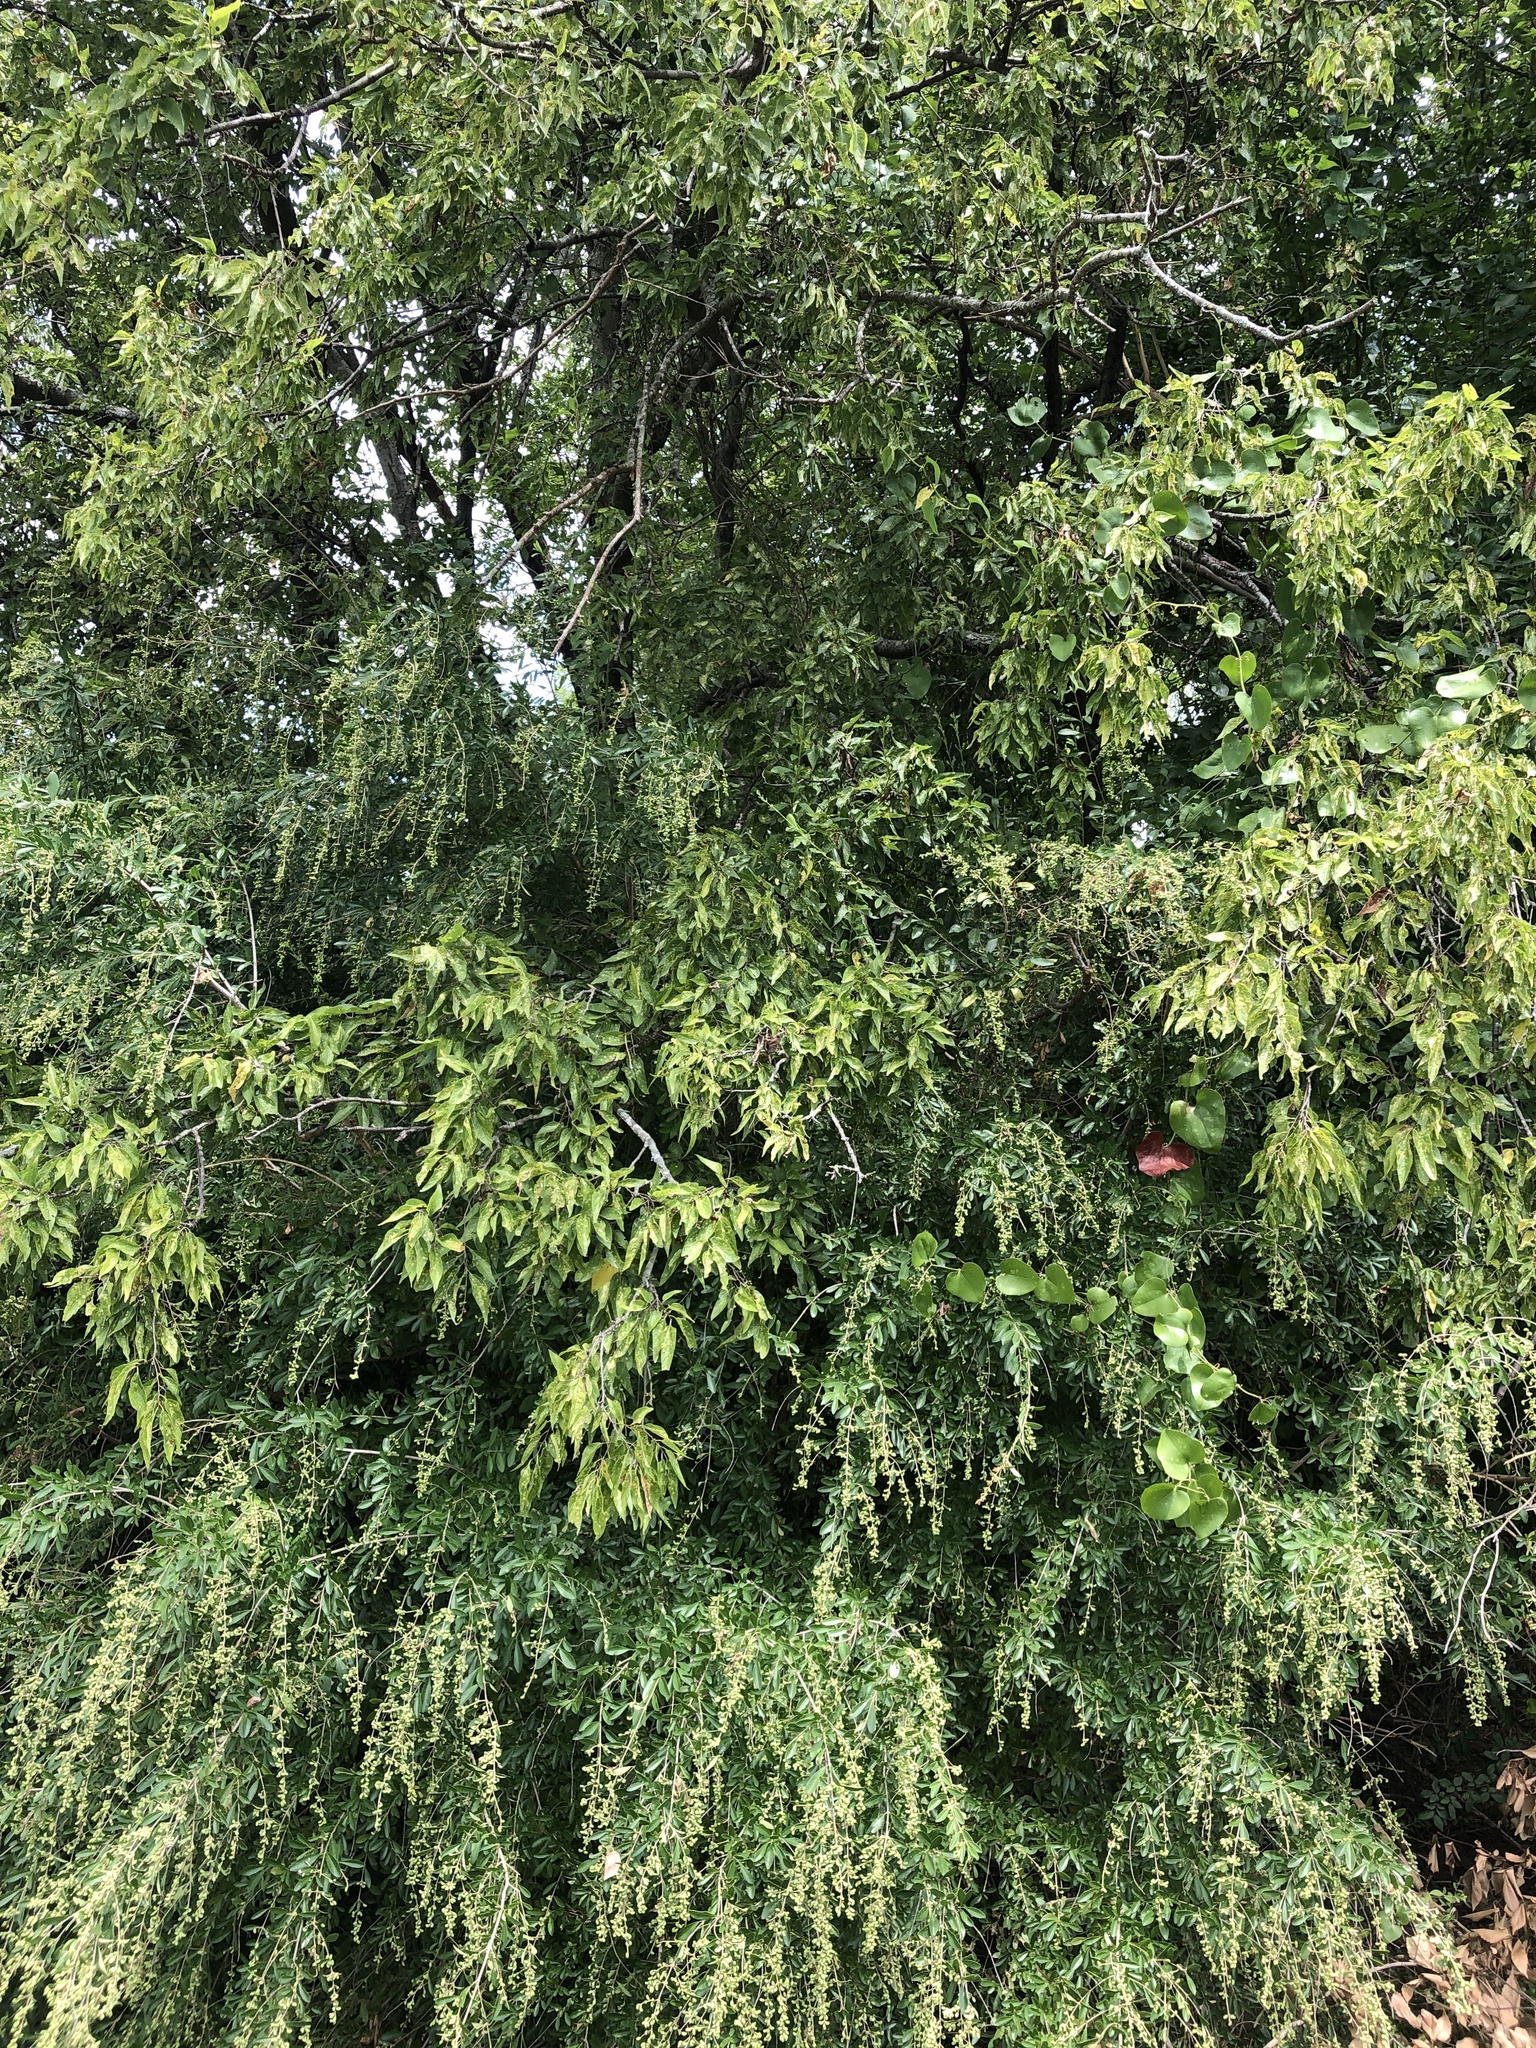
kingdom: Plantae
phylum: Tracheophyta
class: Magnoliopsida
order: Rosales
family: Cannabaceae
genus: Celtis
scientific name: Celtis laevigata
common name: Sugarberry
